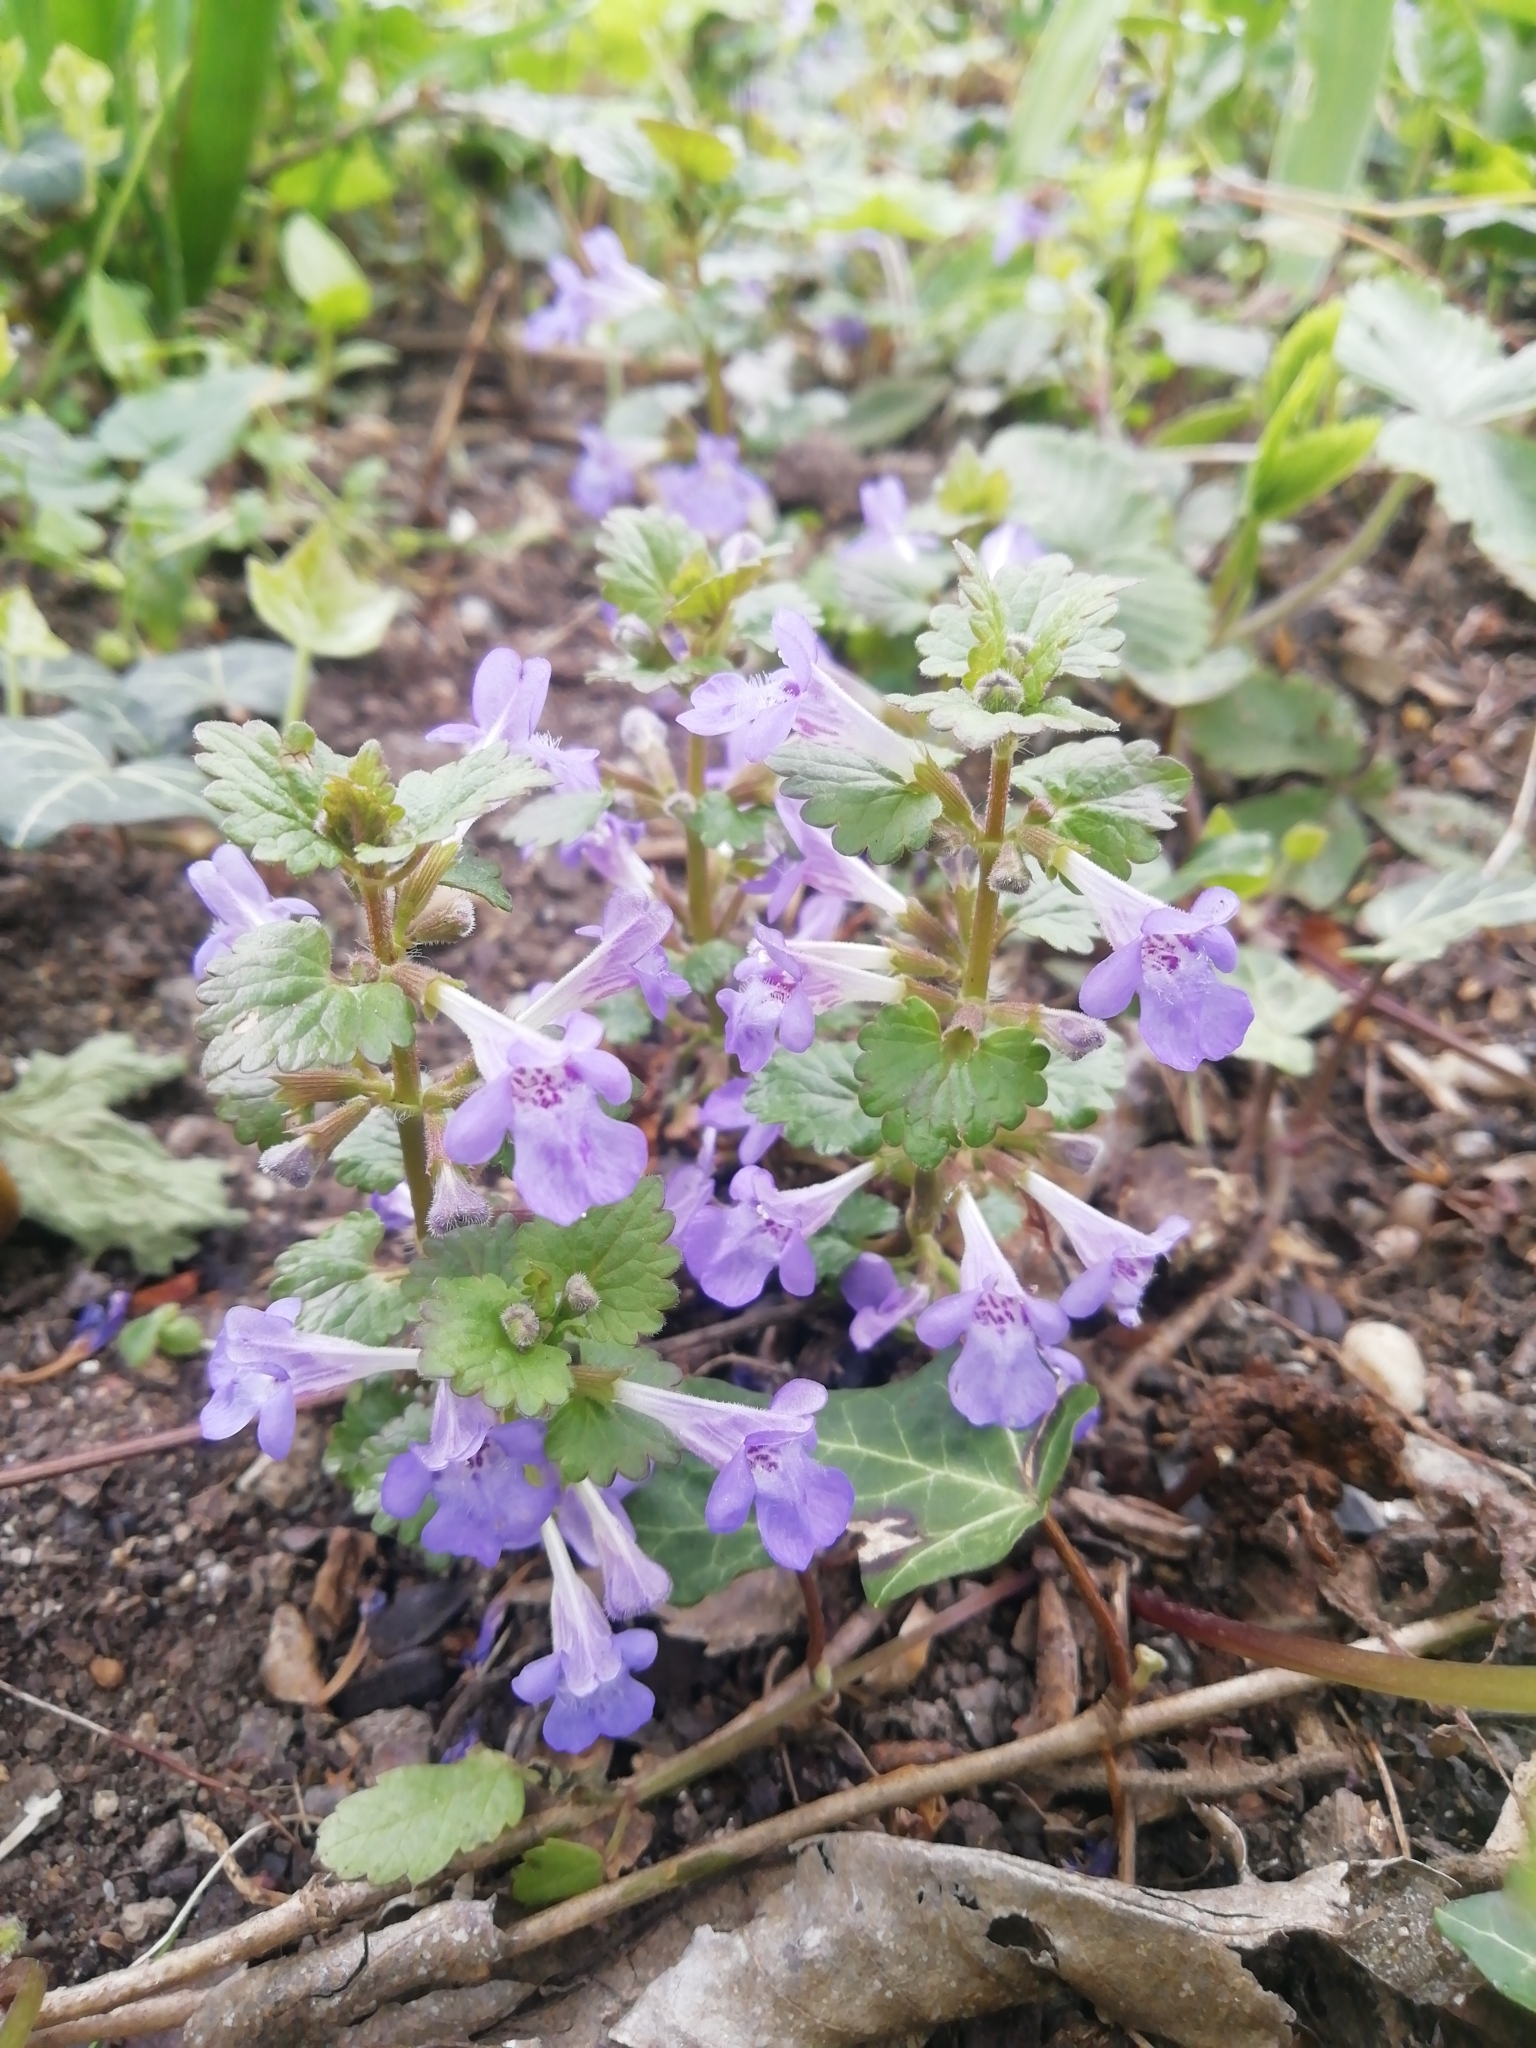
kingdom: Plantae
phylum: Tracheophyta
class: Magnoliopsida
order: Lamiales
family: Lamiaceae
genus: Glechoma
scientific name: Glechoma hederacea
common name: Ground ivy
